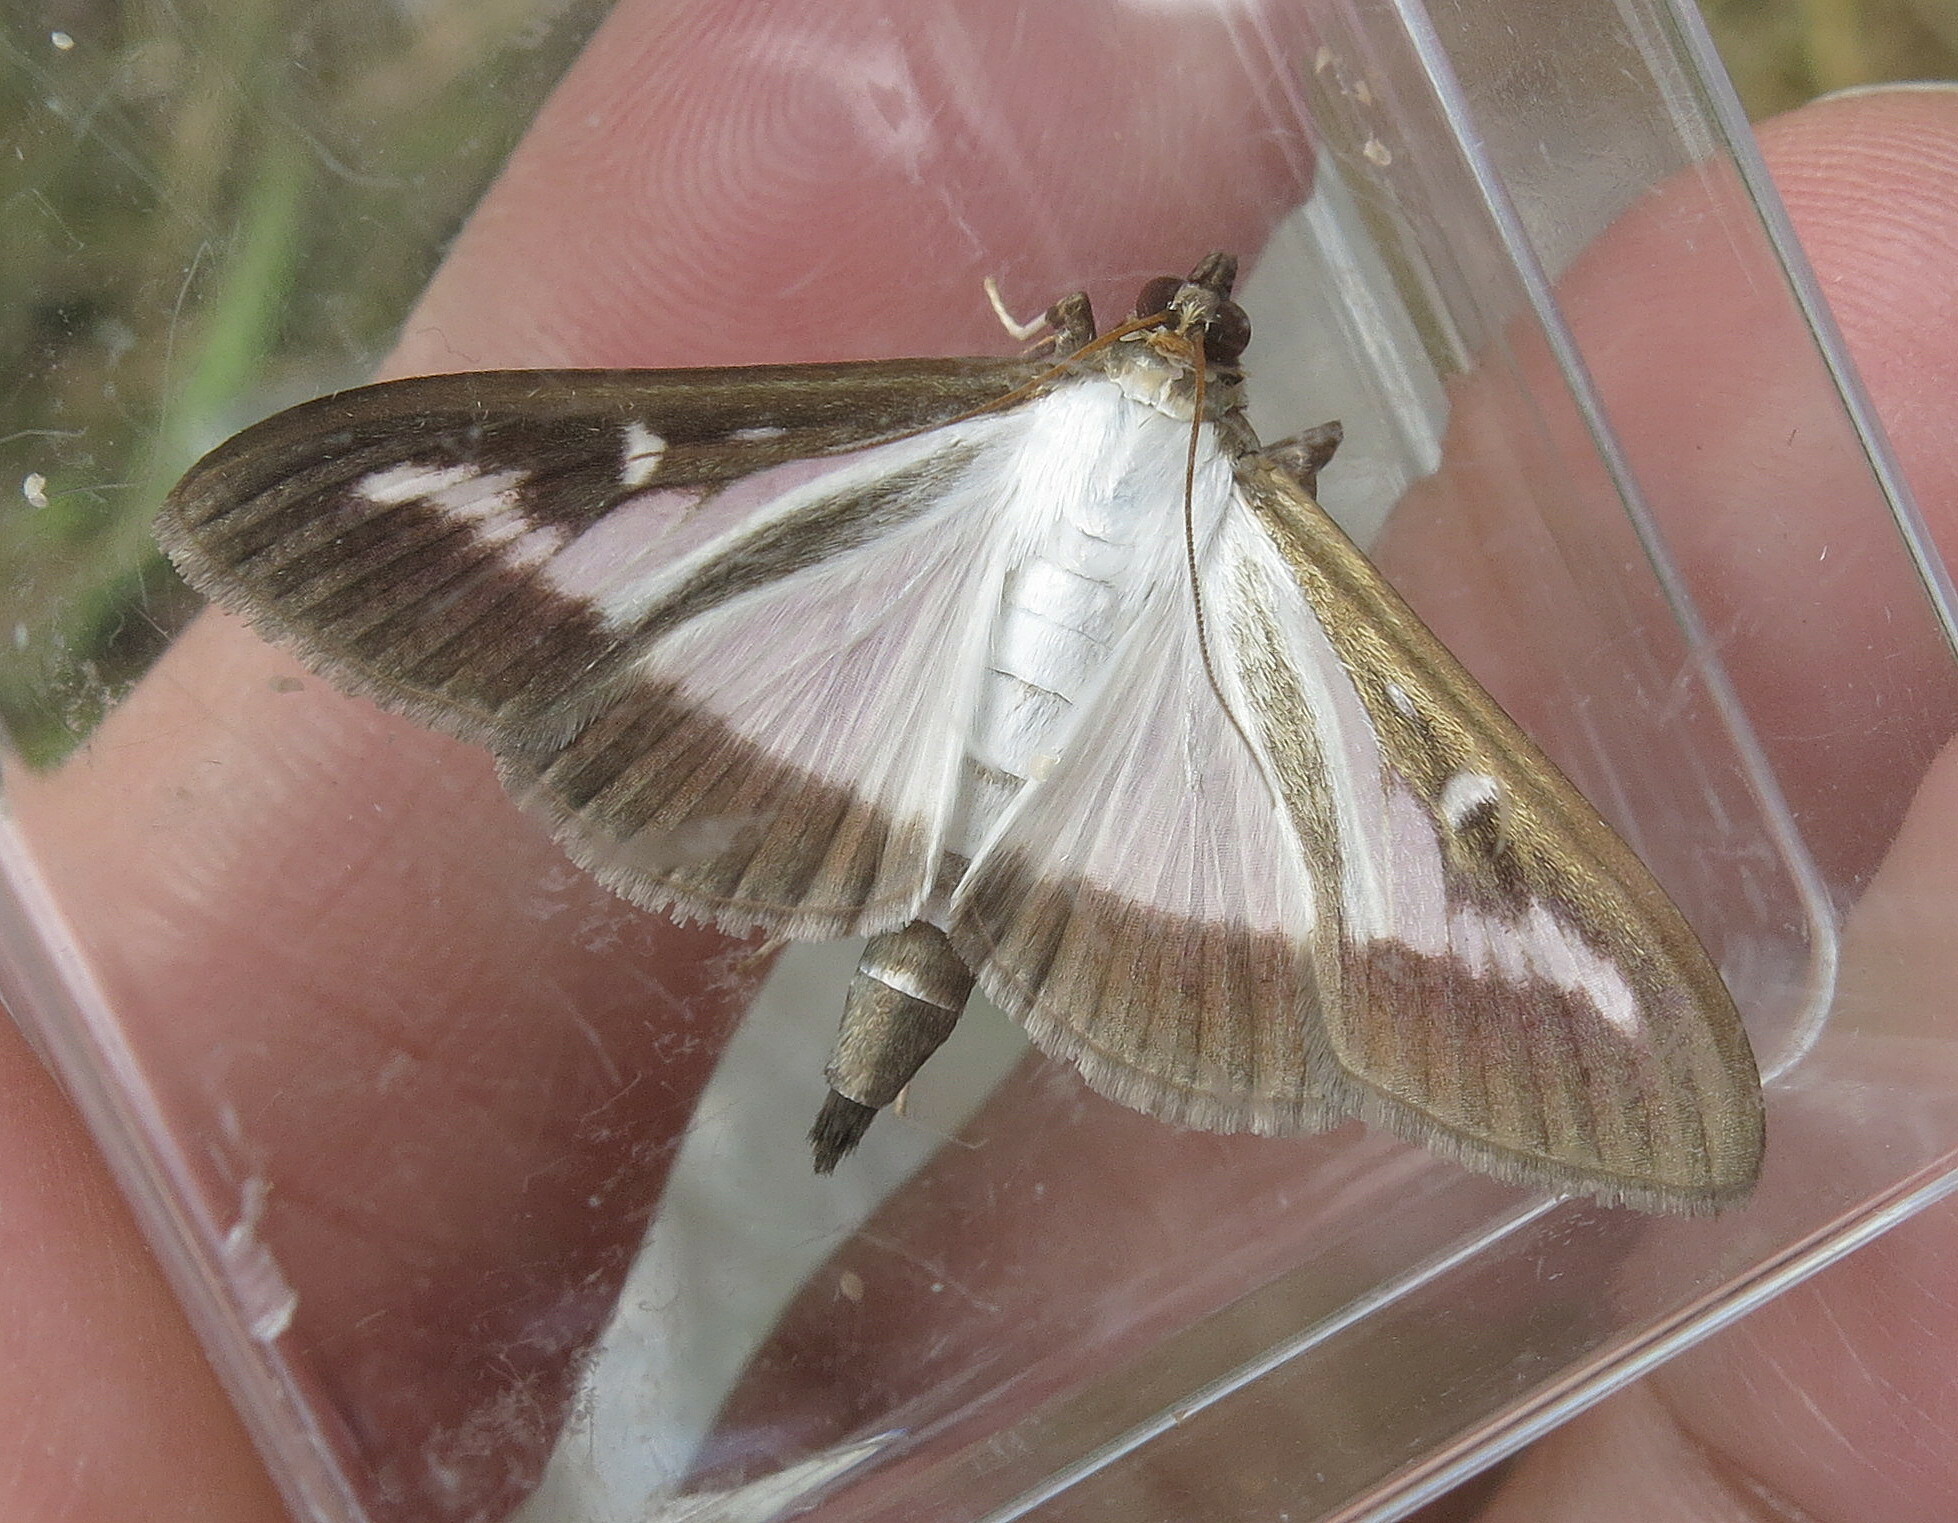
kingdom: Animalia
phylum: Arthropoda
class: Insecta
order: Lepidoptera
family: Crambidae
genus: Cydalima
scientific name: Cydalima perspectalis
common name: Box tree moth
